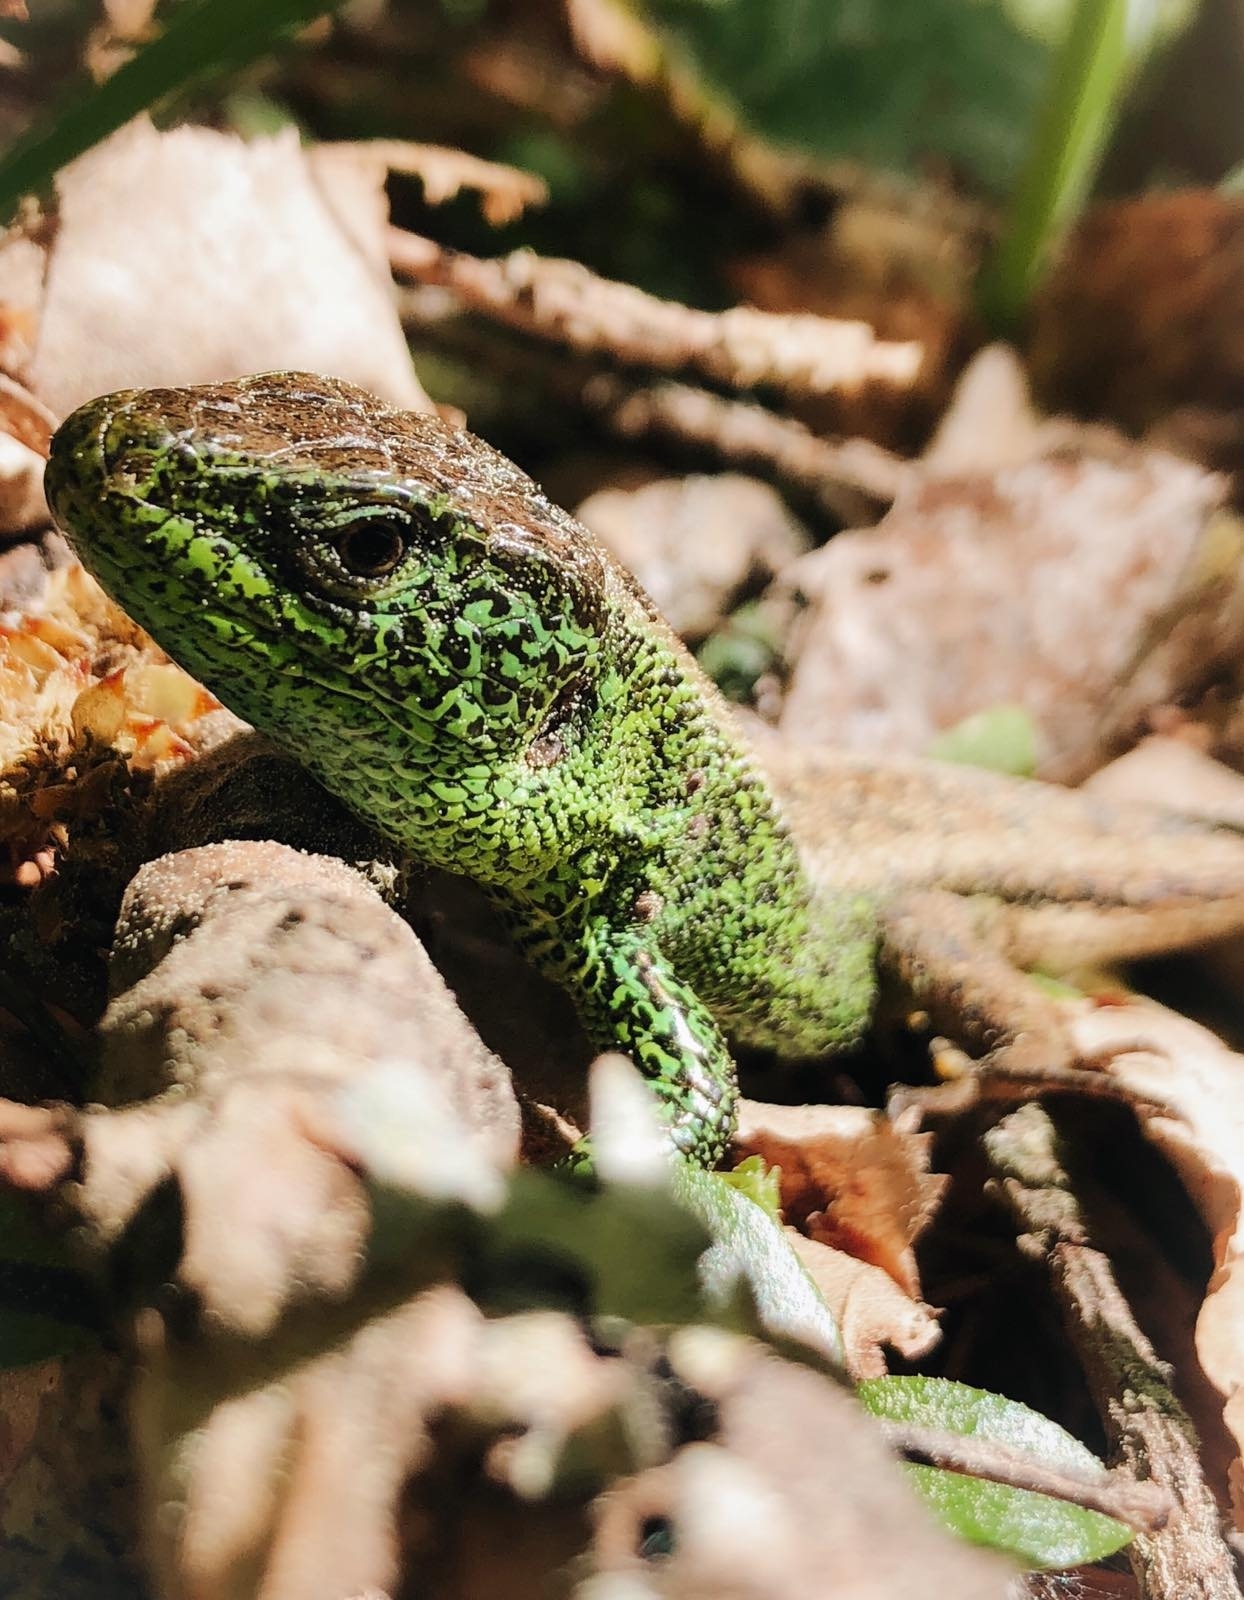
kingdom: Animalia
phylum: Chordata
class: Squamata
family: Lacertidae
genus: Lacerta
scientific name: Lacerta agilis
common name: Sand lizard
